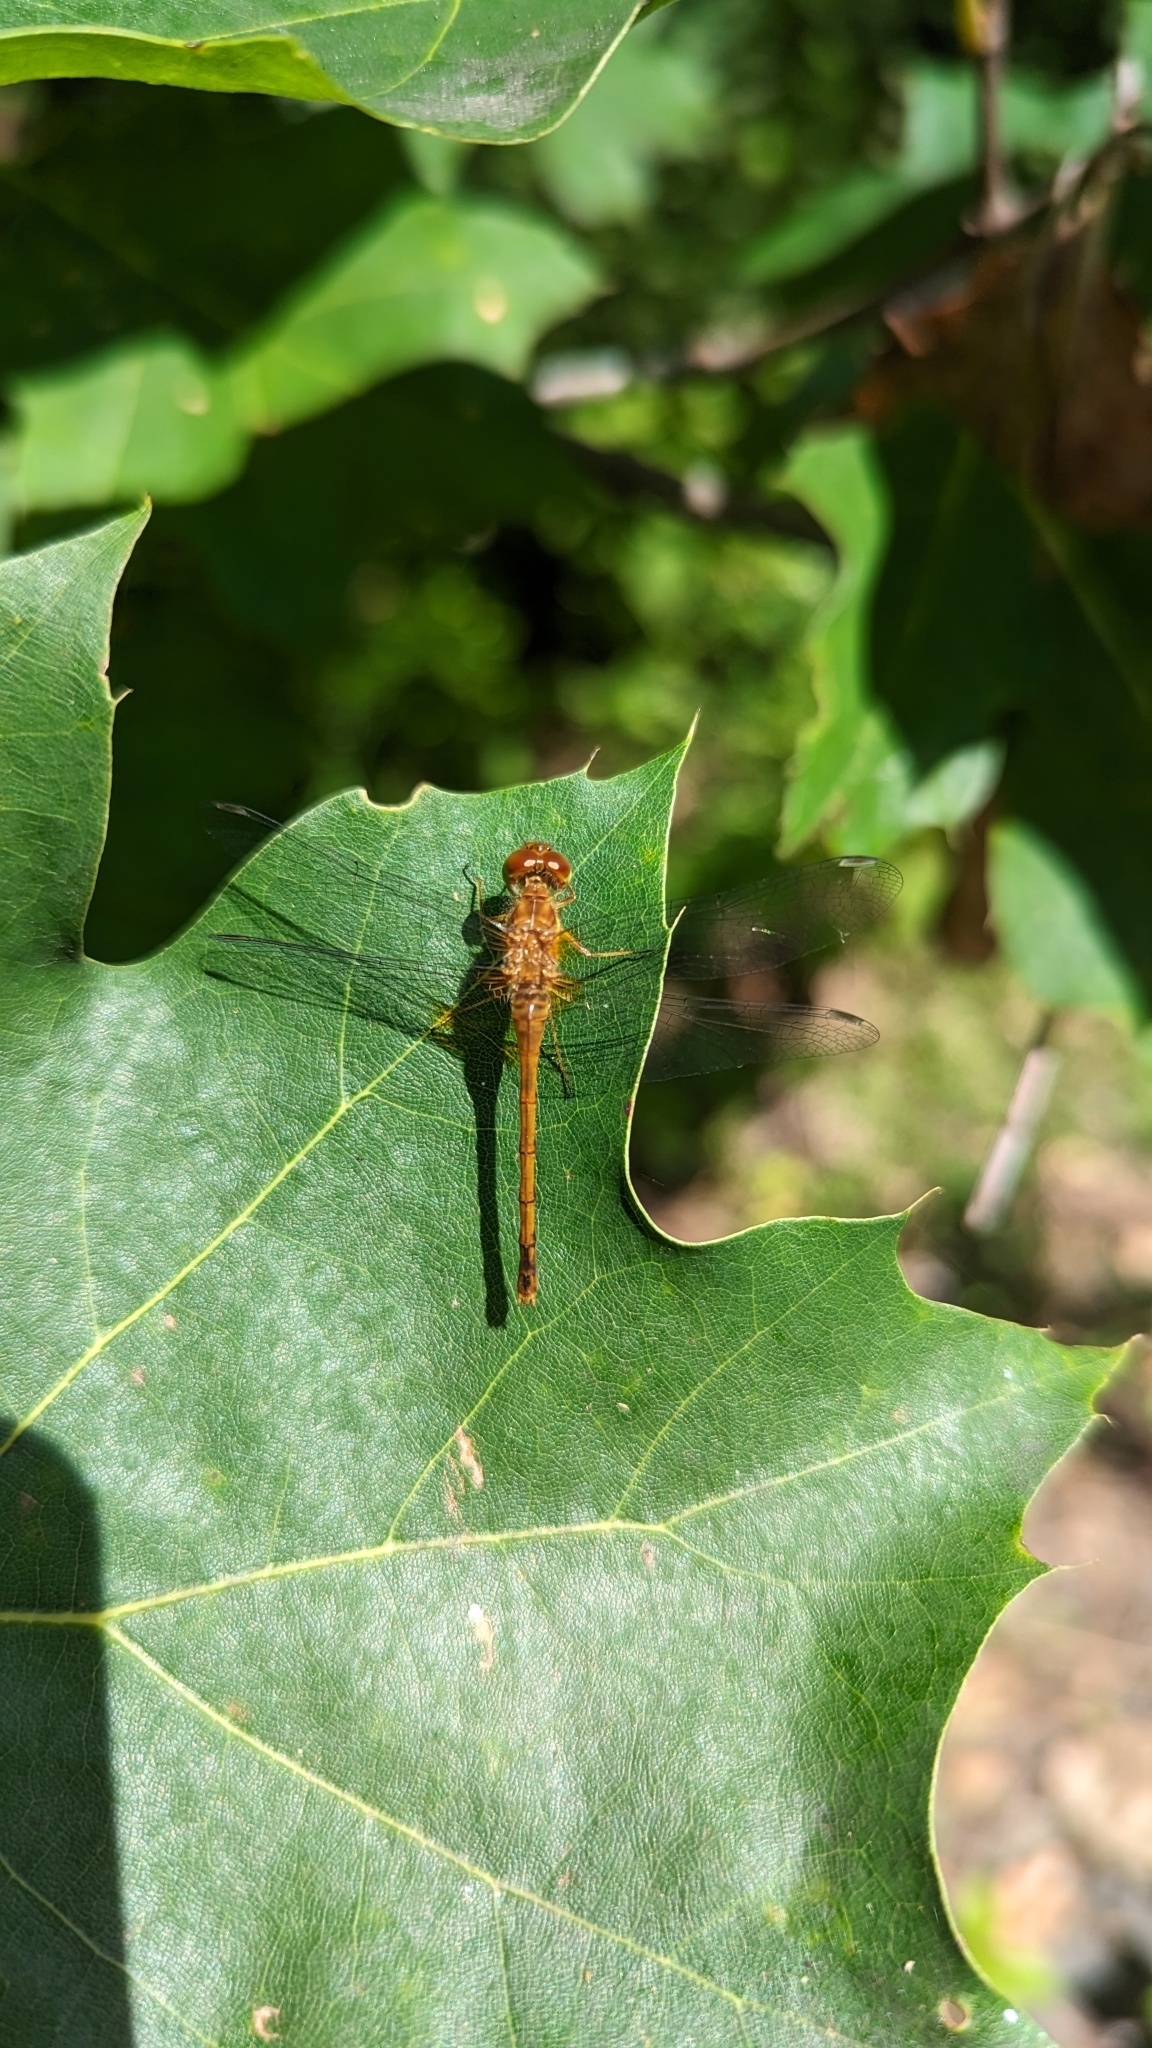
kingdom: Animalia
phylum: Arthropoda
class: Insecta
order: Odonata
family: Libellulidae
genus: Sympetrum
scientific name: Sympetrum vicinum
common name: Autumn meadowhawk
